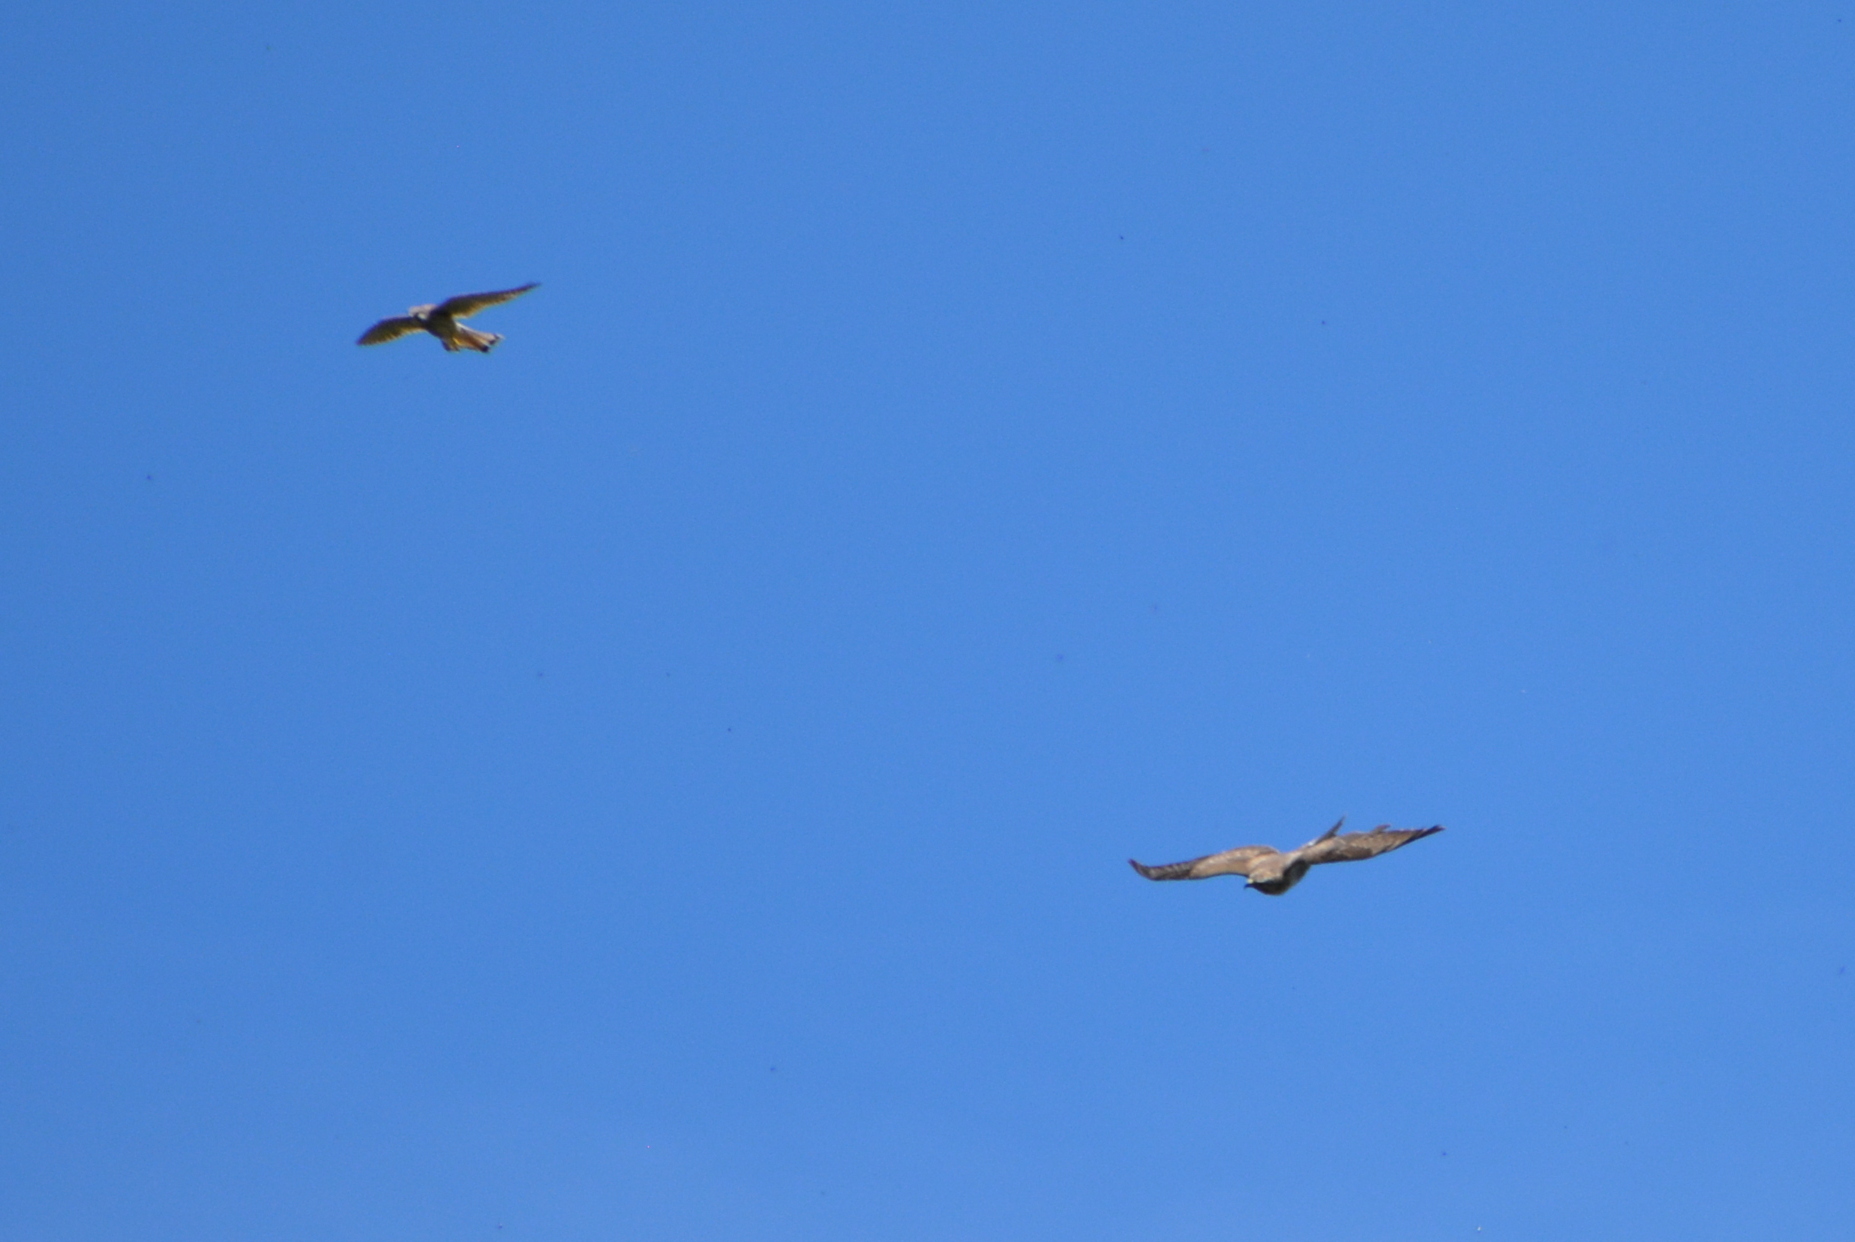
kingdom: Animalia
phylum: Chordata
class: Aves
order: Accipitriformes
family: Accipitridae
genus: Buteo
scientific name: Buteo buteo
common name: Common buzzard
